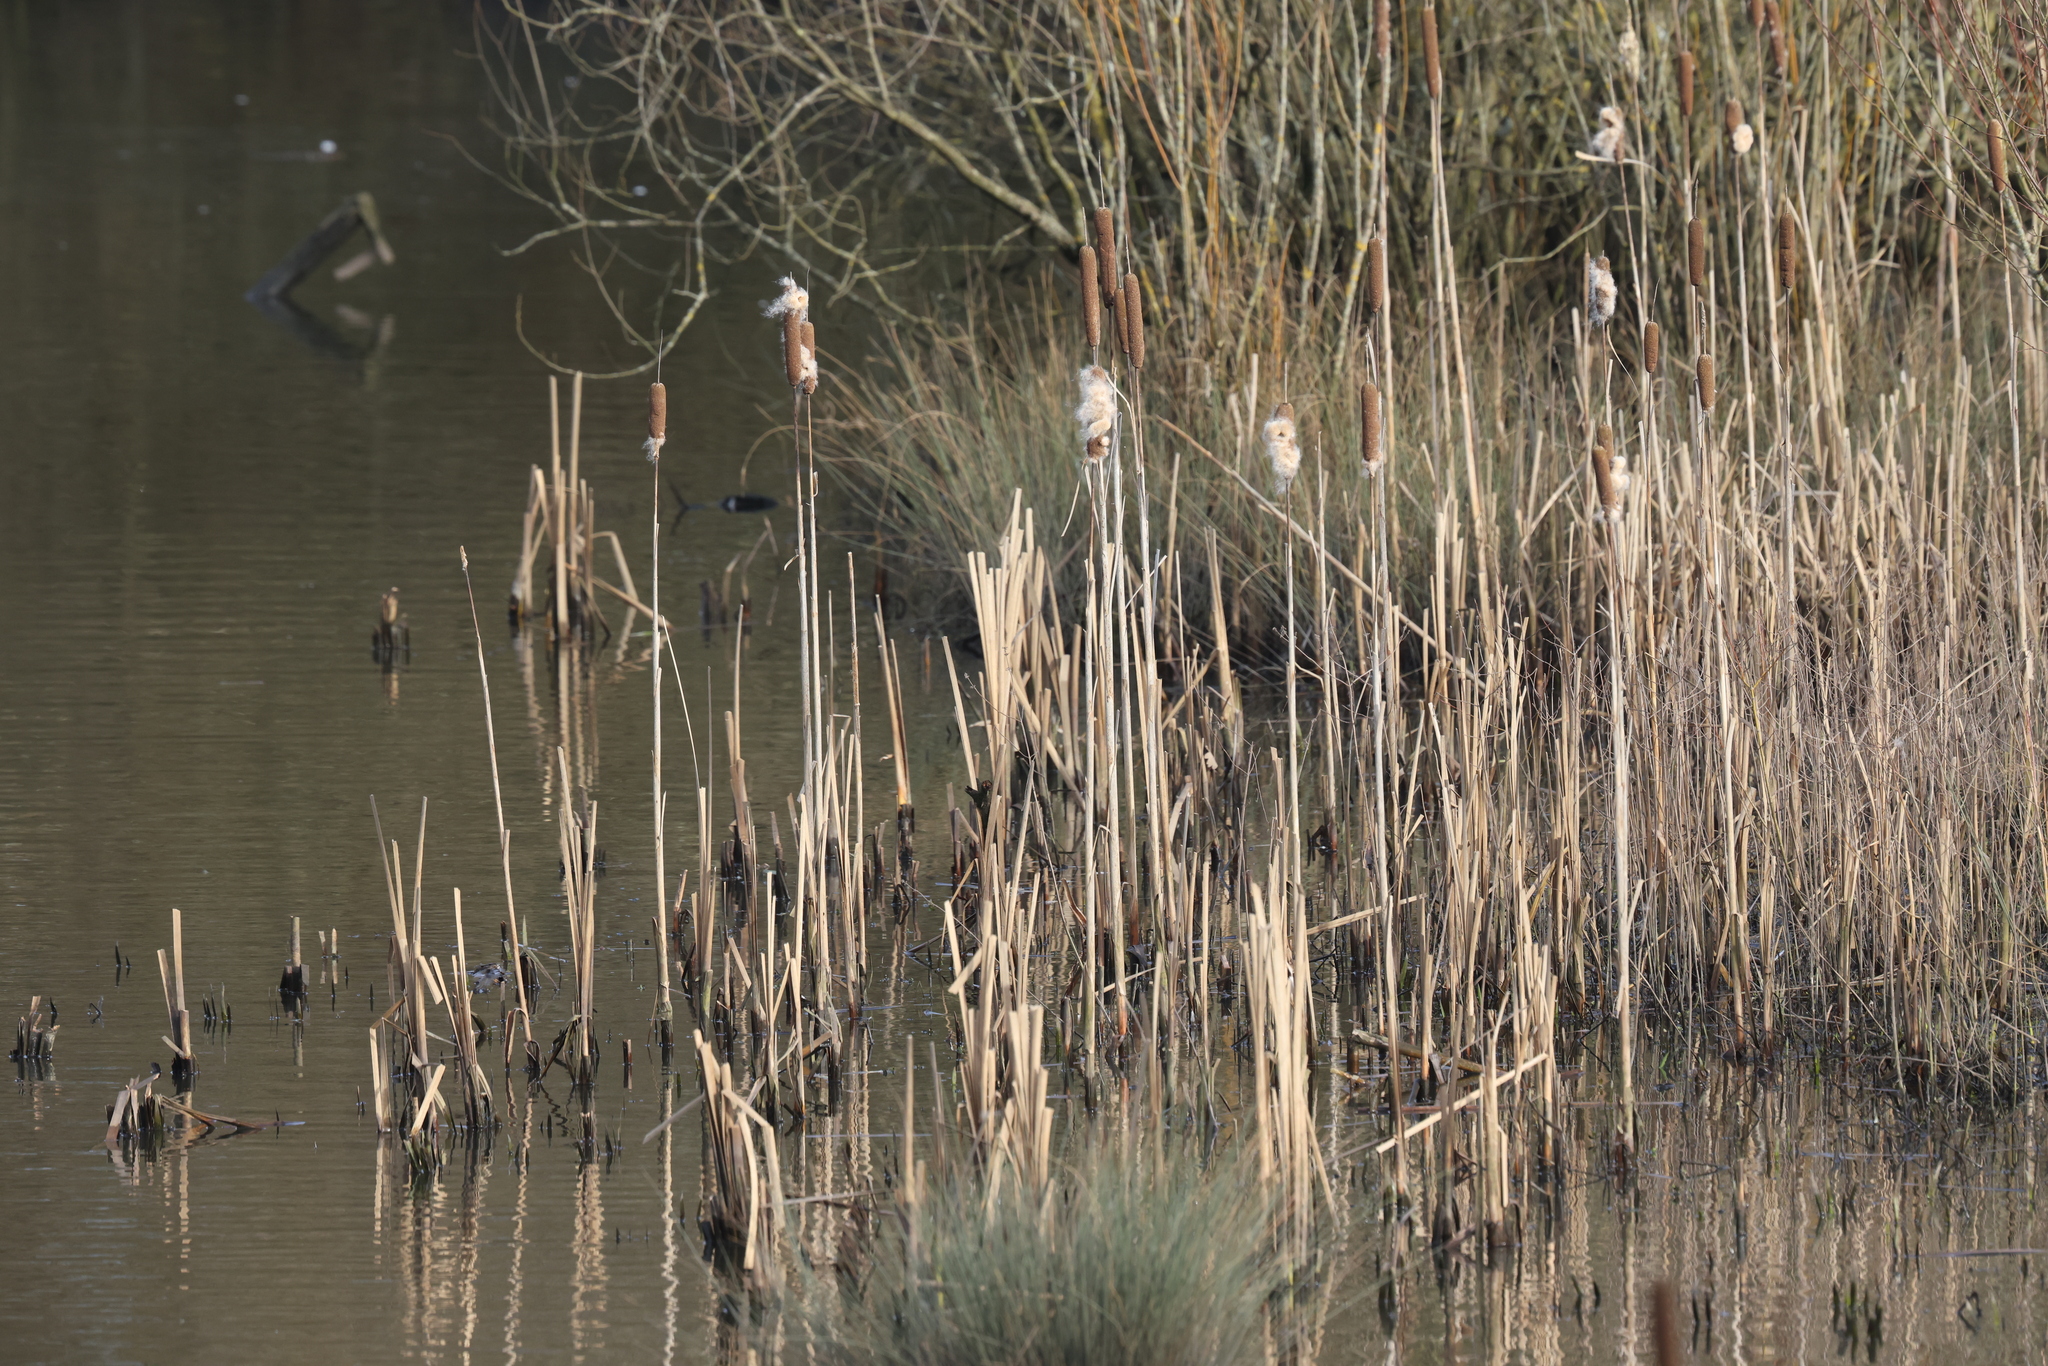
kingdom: Plantae
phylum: Tracheophyta
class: Liliopsida
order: Poales
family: Typhaceae
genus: Typha
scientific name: Typha latifolia
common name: Broadleaf cattail
